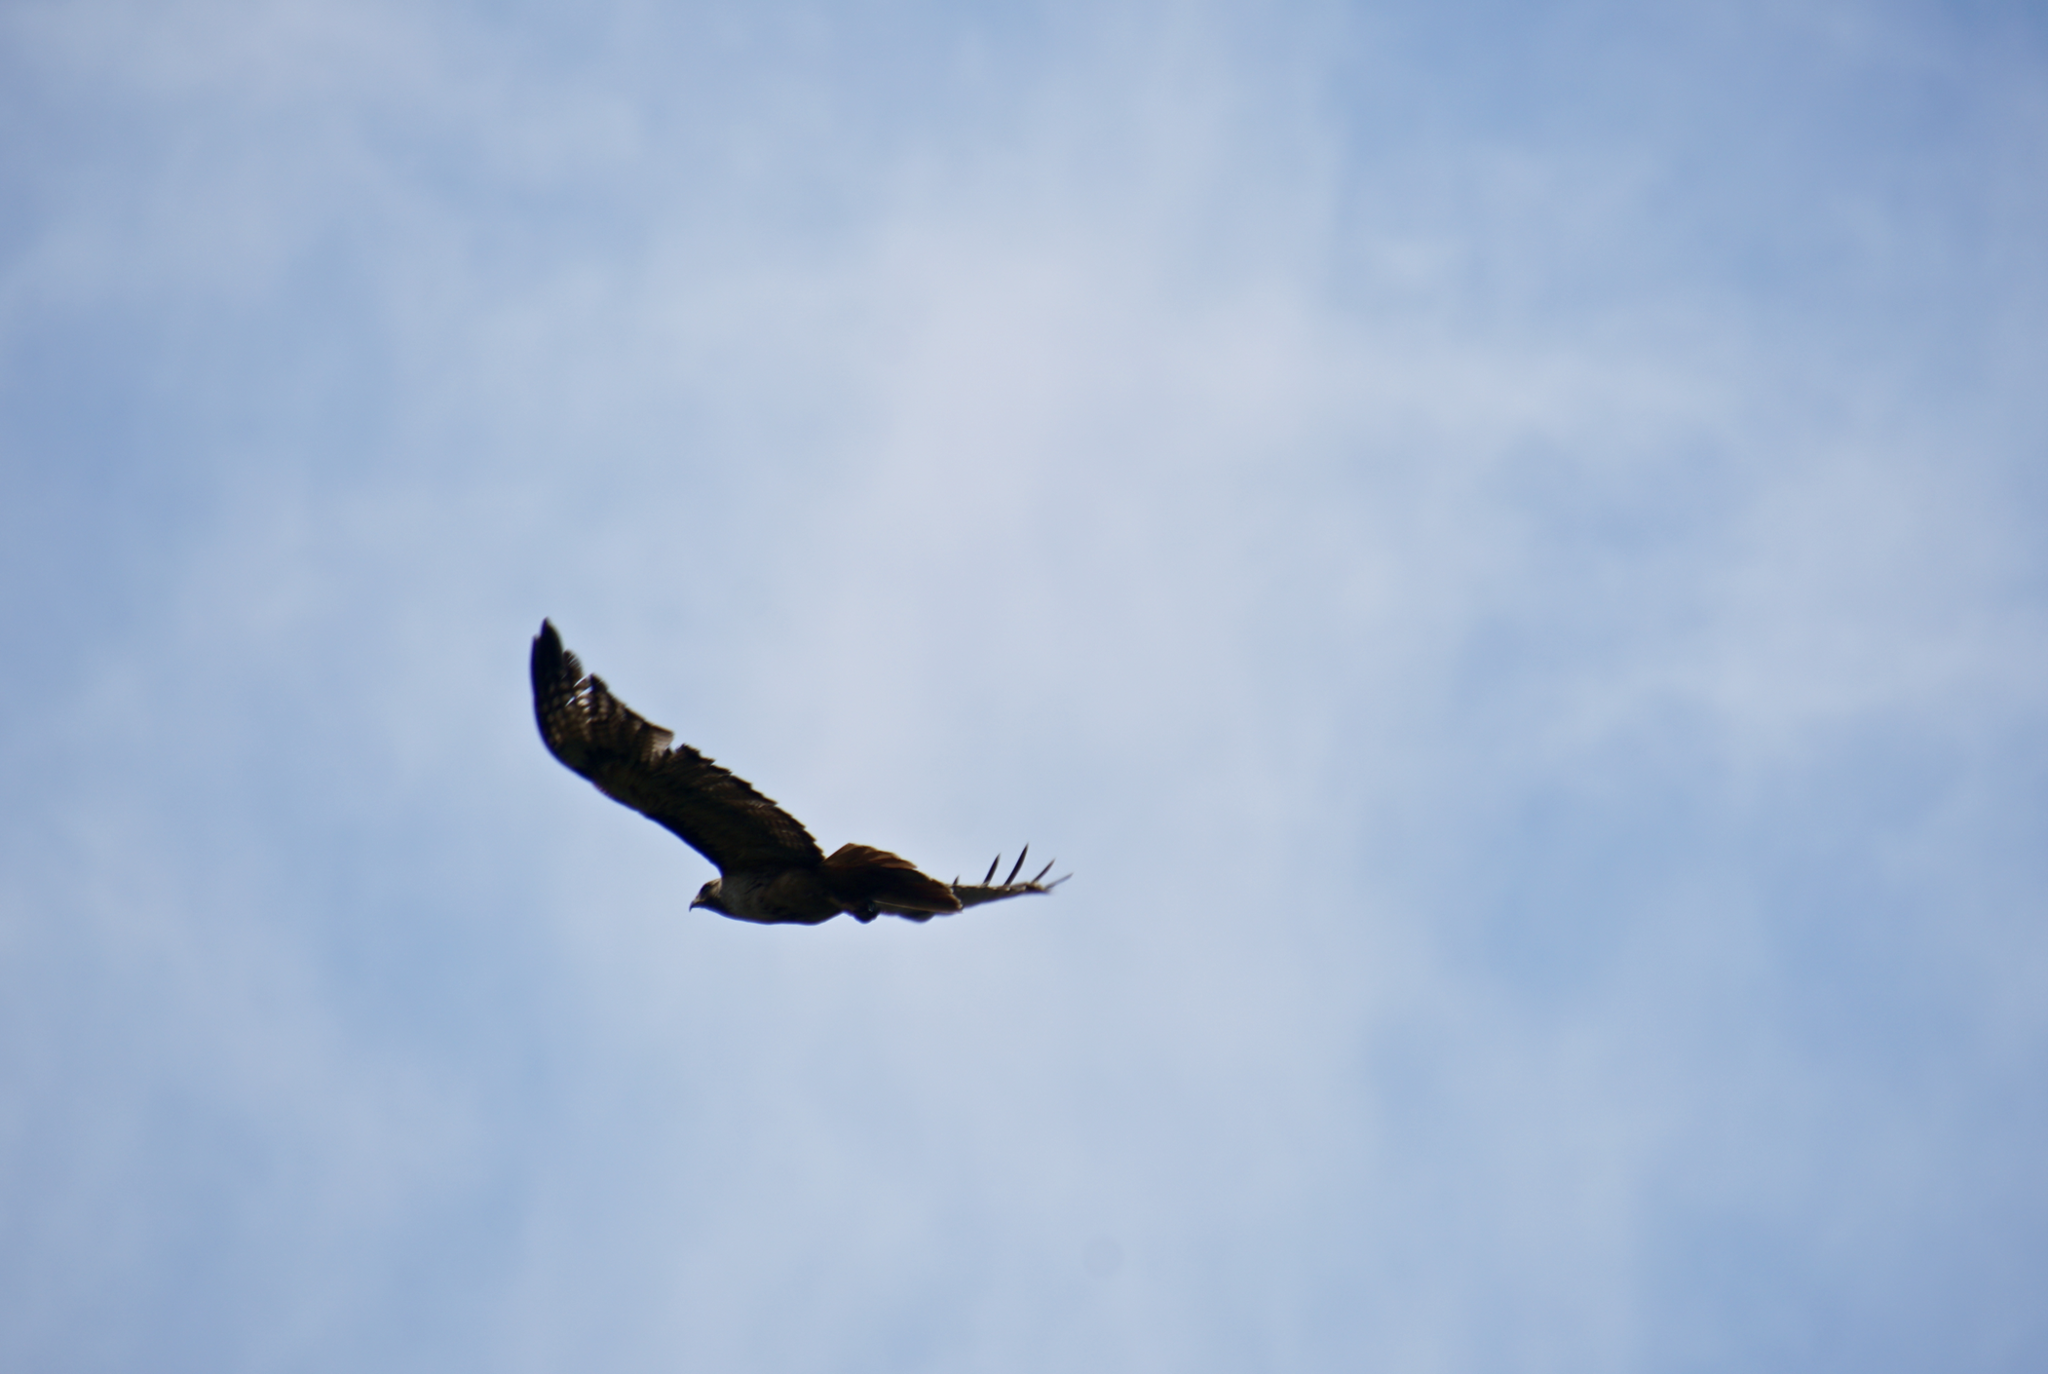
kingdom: Animalia
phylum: Chordata
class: Aves
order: Accipitriformes
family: Accipitridae
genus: Buteo
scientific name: Buteo jamaicensis
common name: Red-tailed hawk
